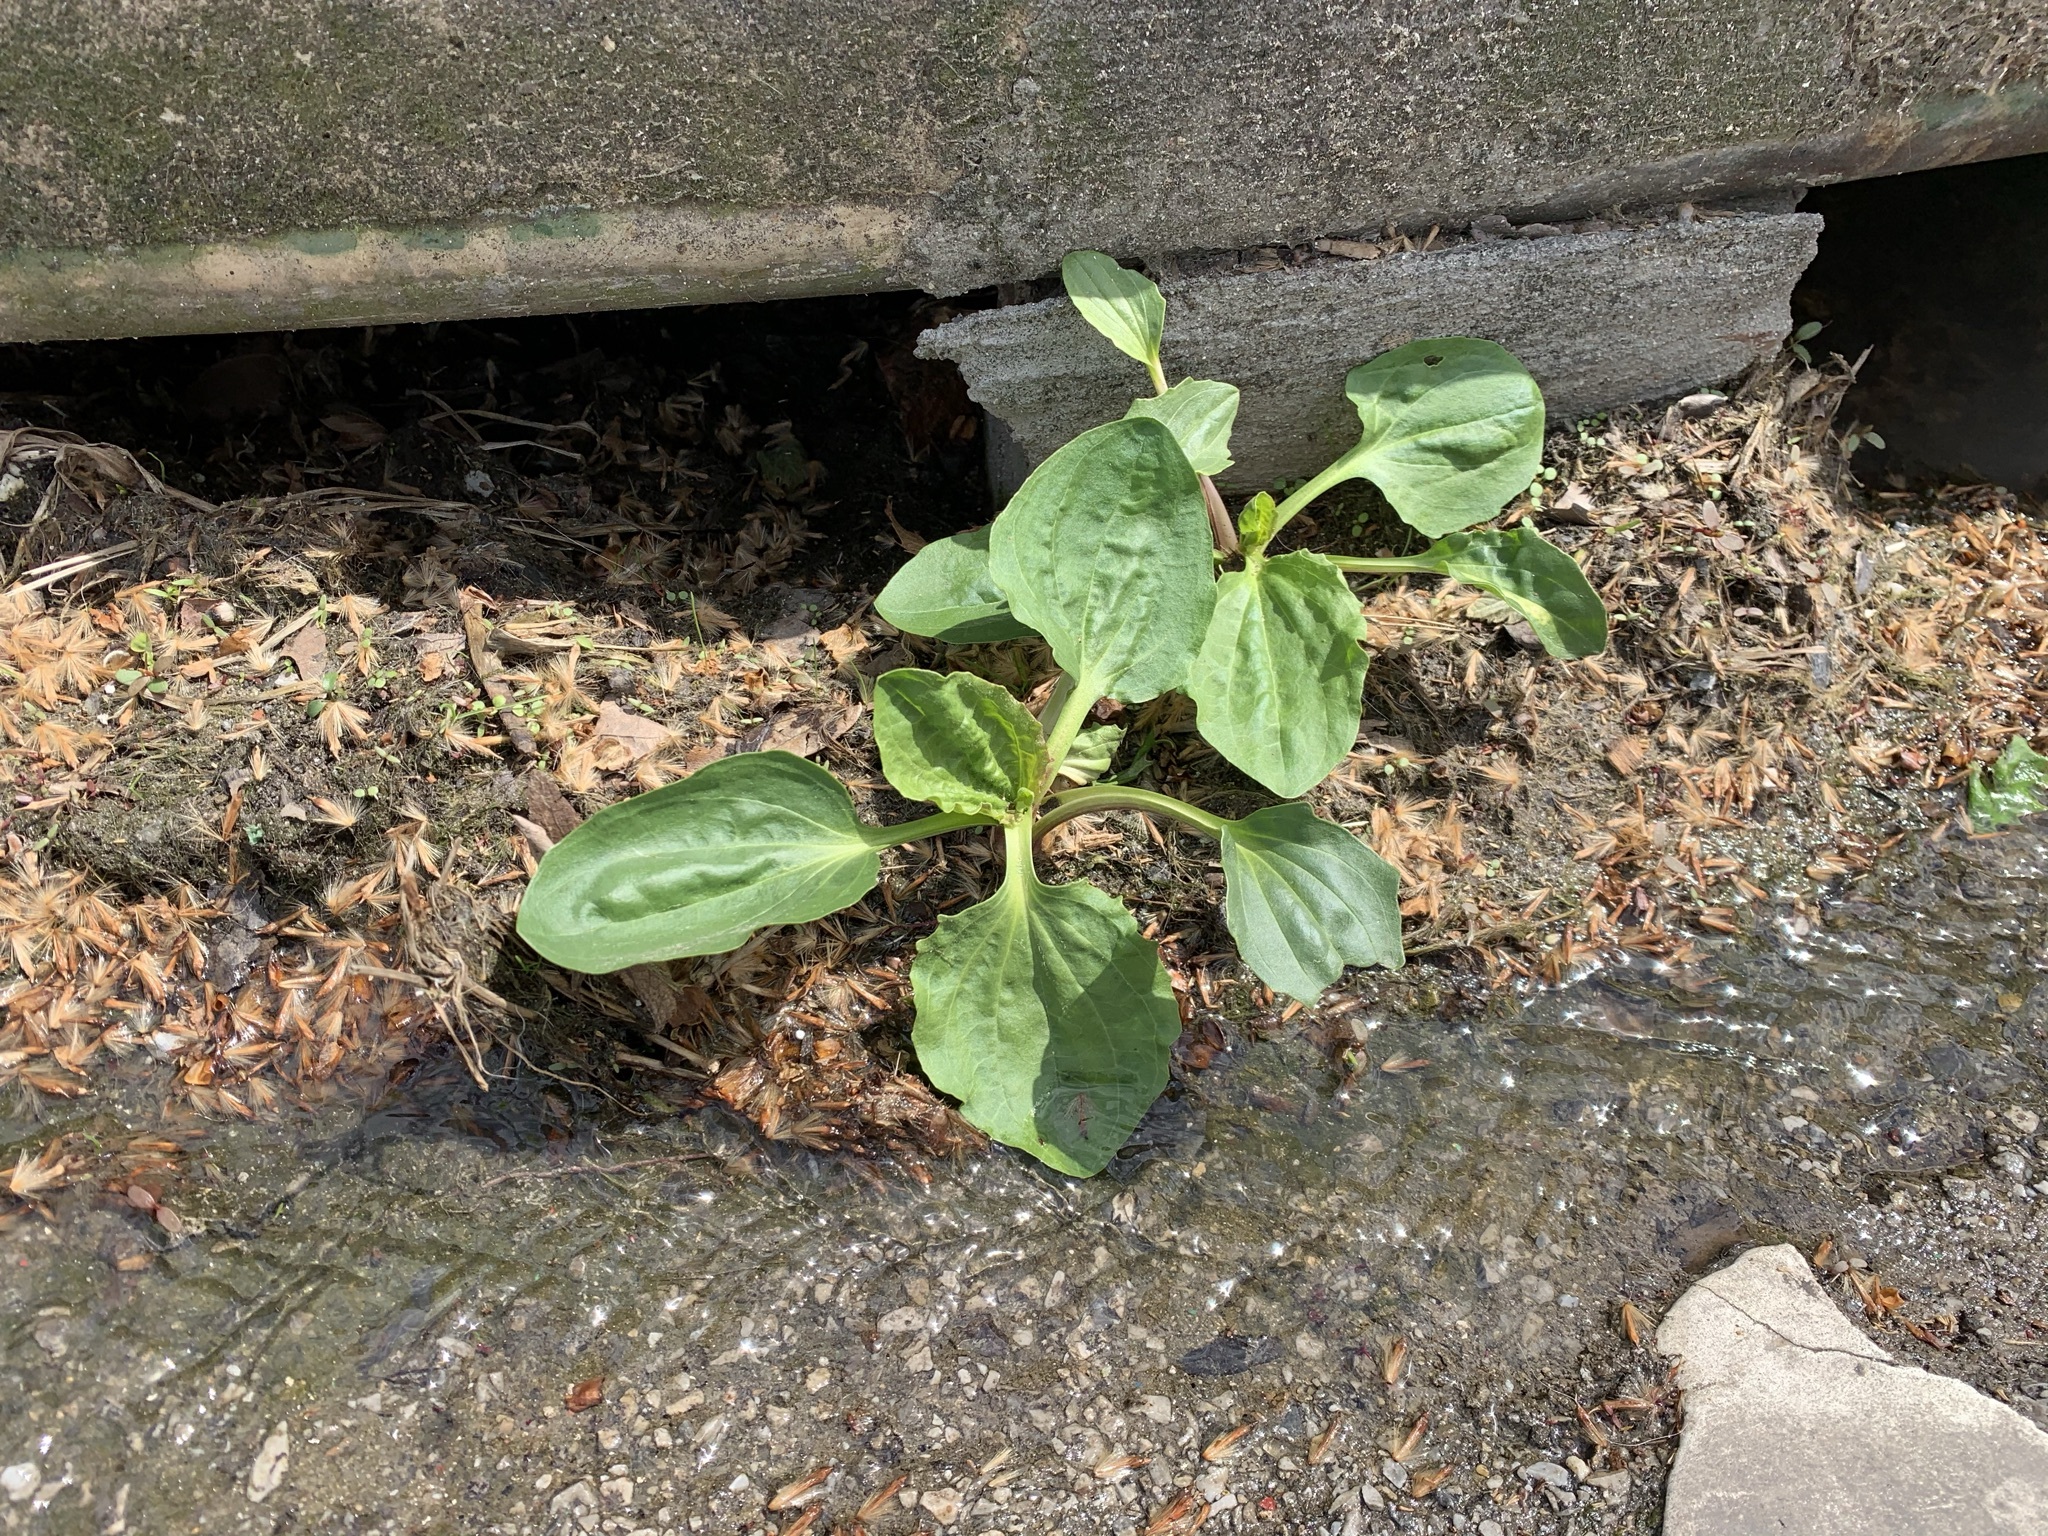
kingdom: Plantae
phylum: Tracheophyta
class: Magnoliopsida
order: Lamiales
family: Plantaginaceae
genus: Plantago
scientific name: Plantago major
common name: Common plantain
